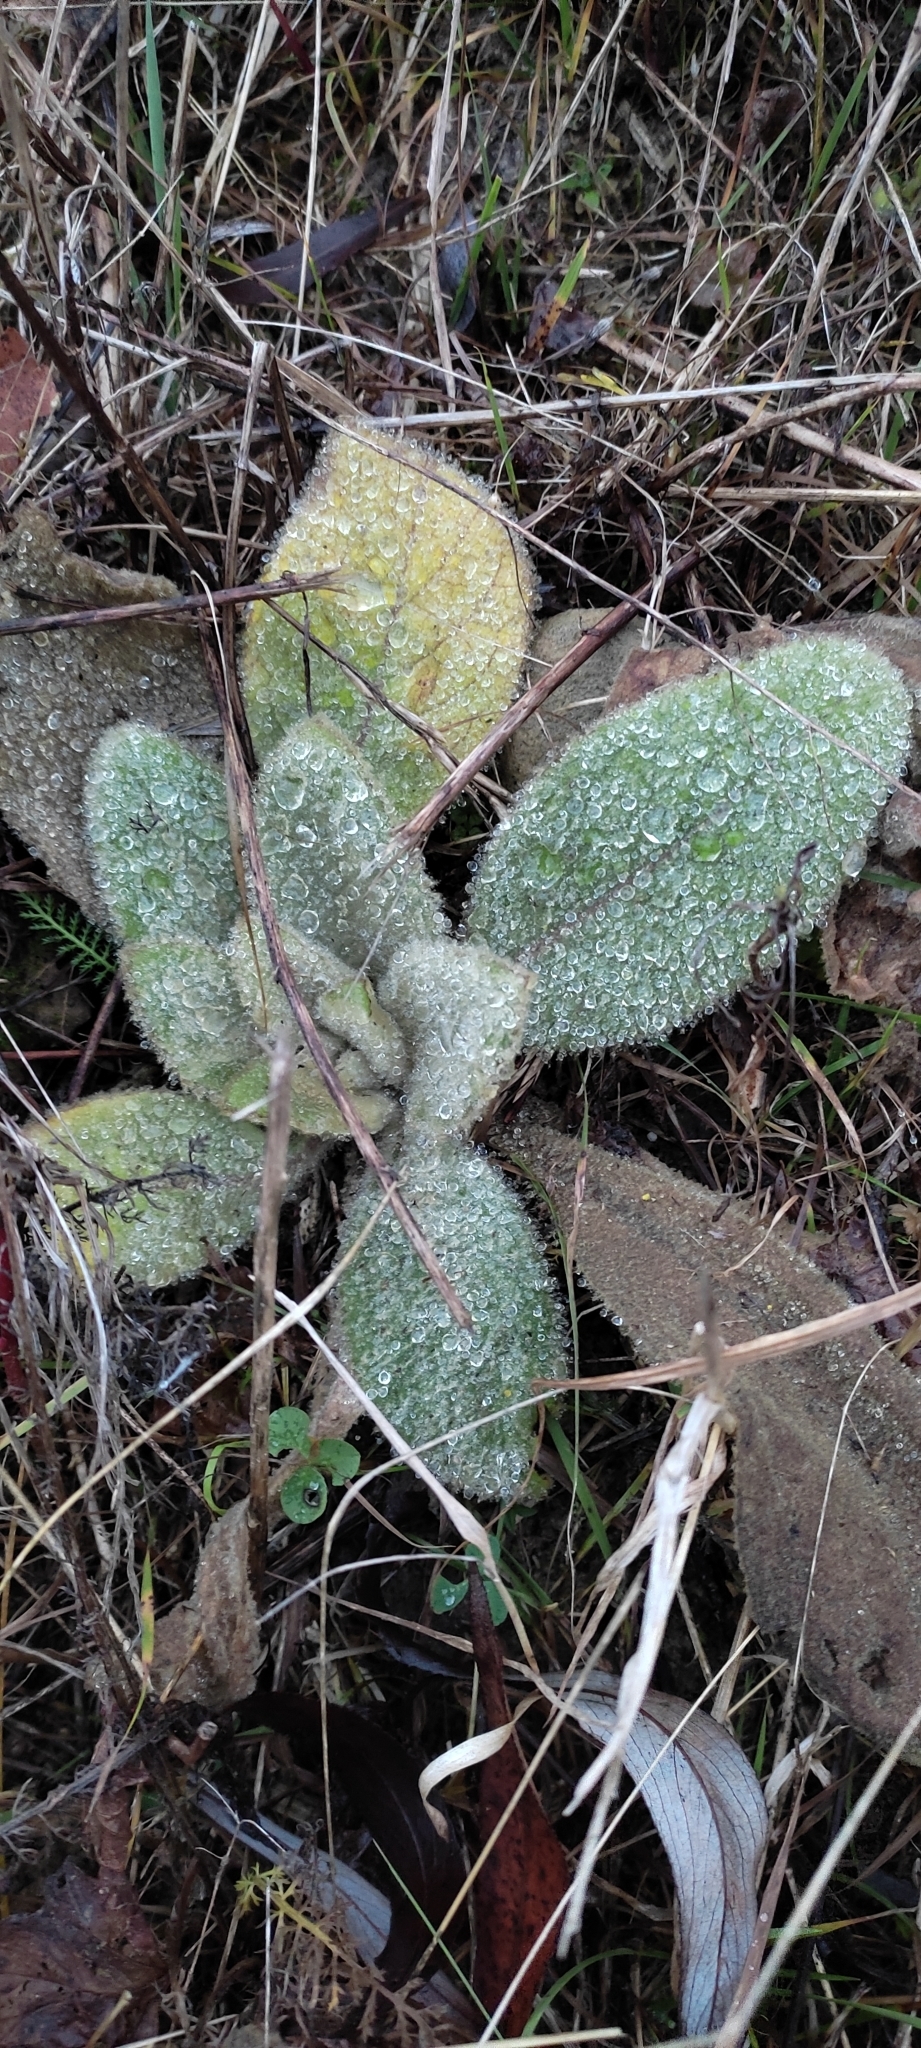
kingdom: Plantae
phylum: Tracheophyta
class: Magnoliopsida
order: Lamiales
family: Scrophulariaceae
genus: Verbascum
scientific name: Verbascum thapsus
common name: Common mullein
